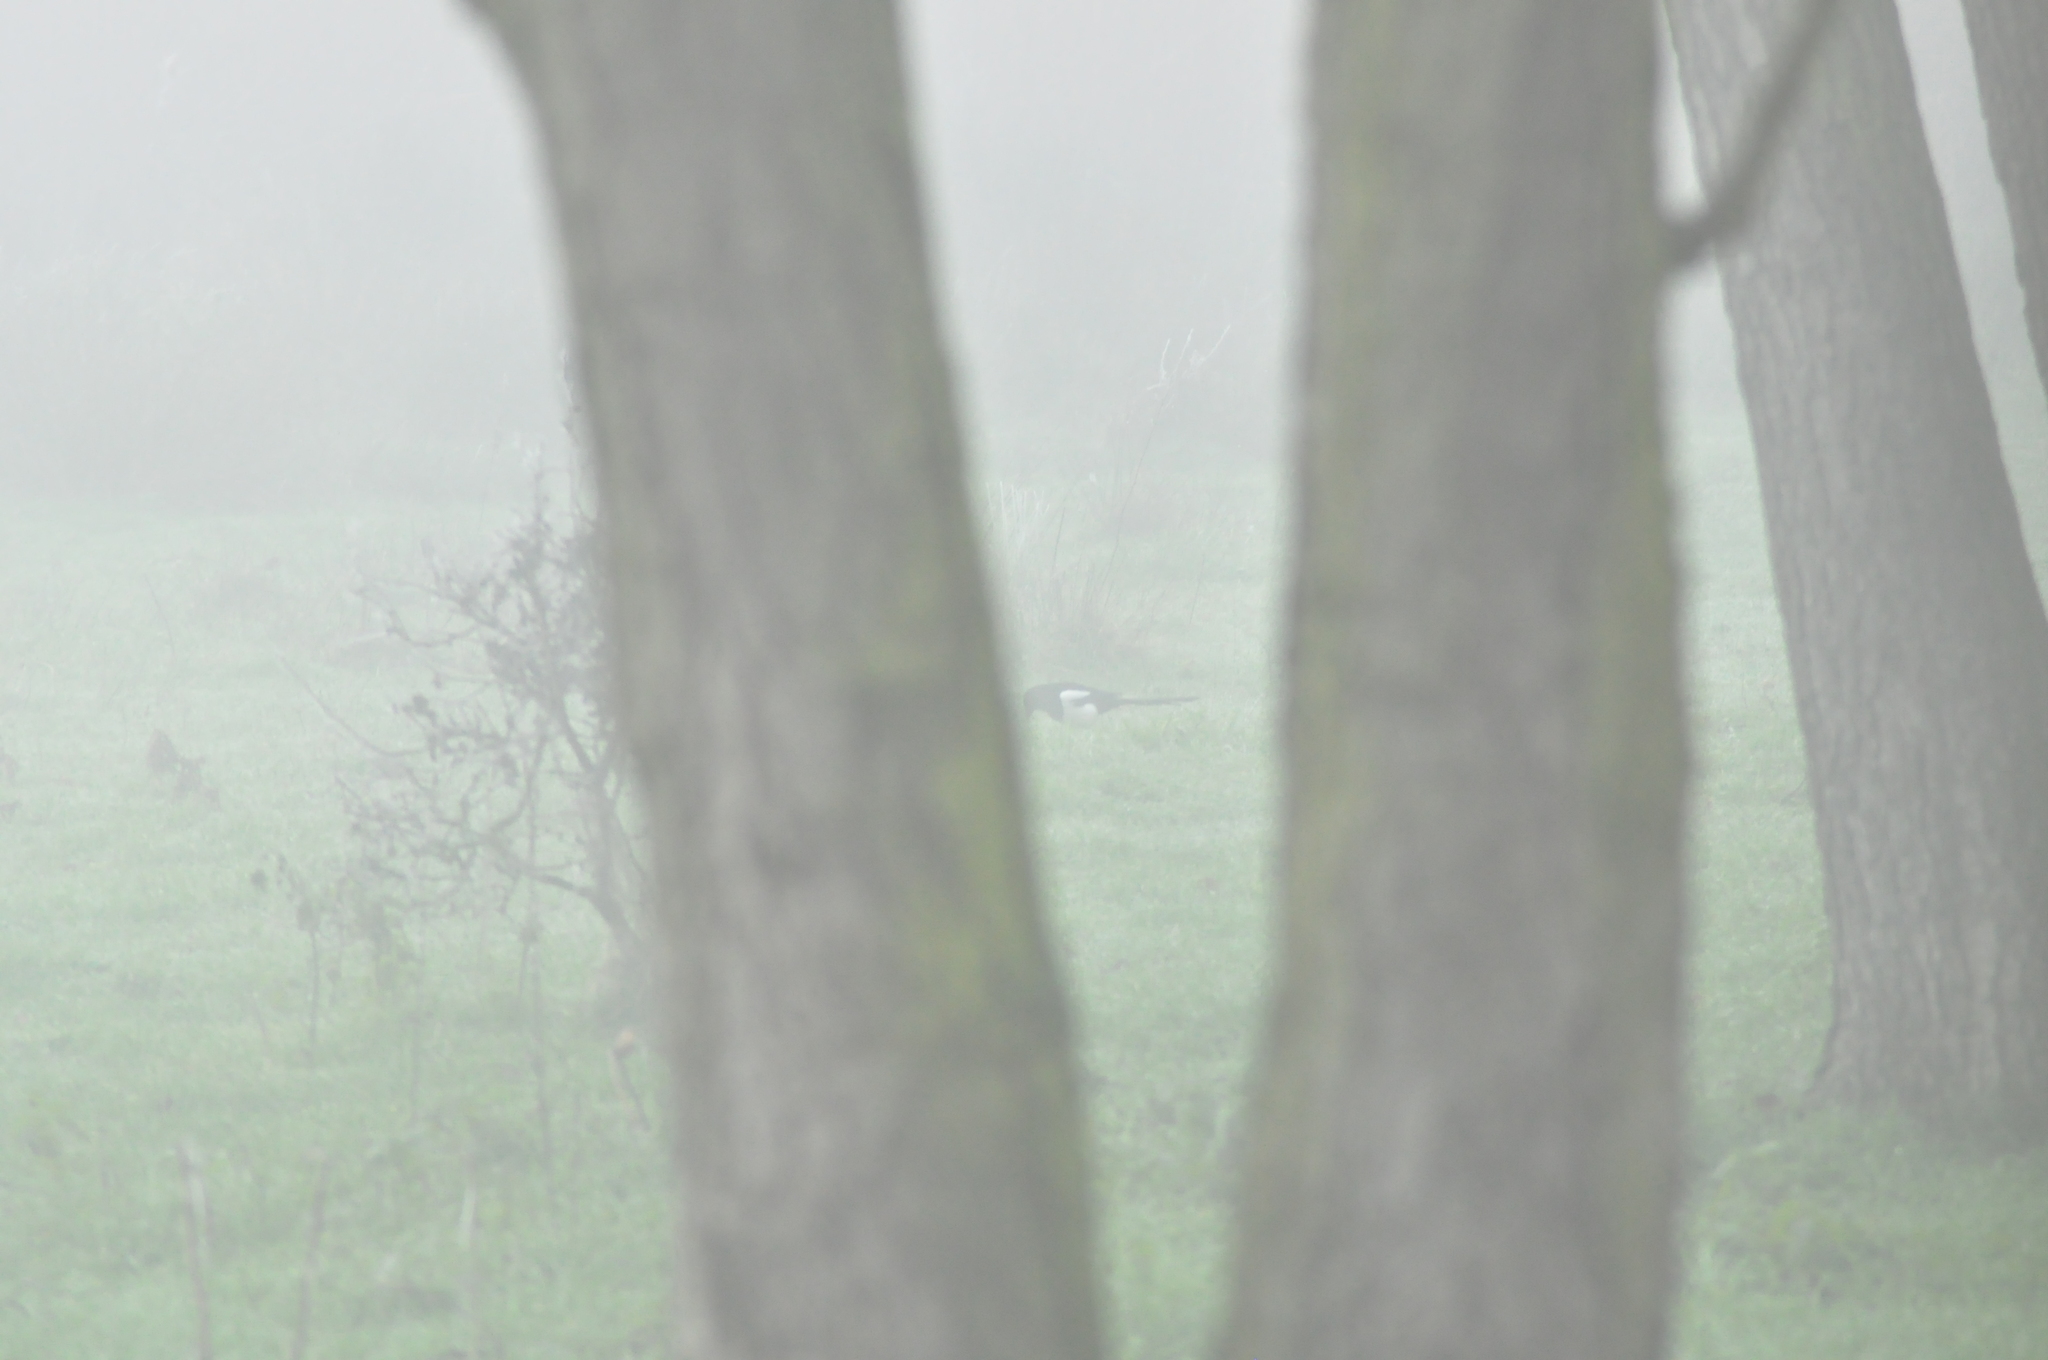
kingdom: Animalia
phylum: Chordata
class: Aves
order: Passeriformes
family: Corvidae
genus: Pica
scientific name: Pica pica
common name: Eurasian magpie
